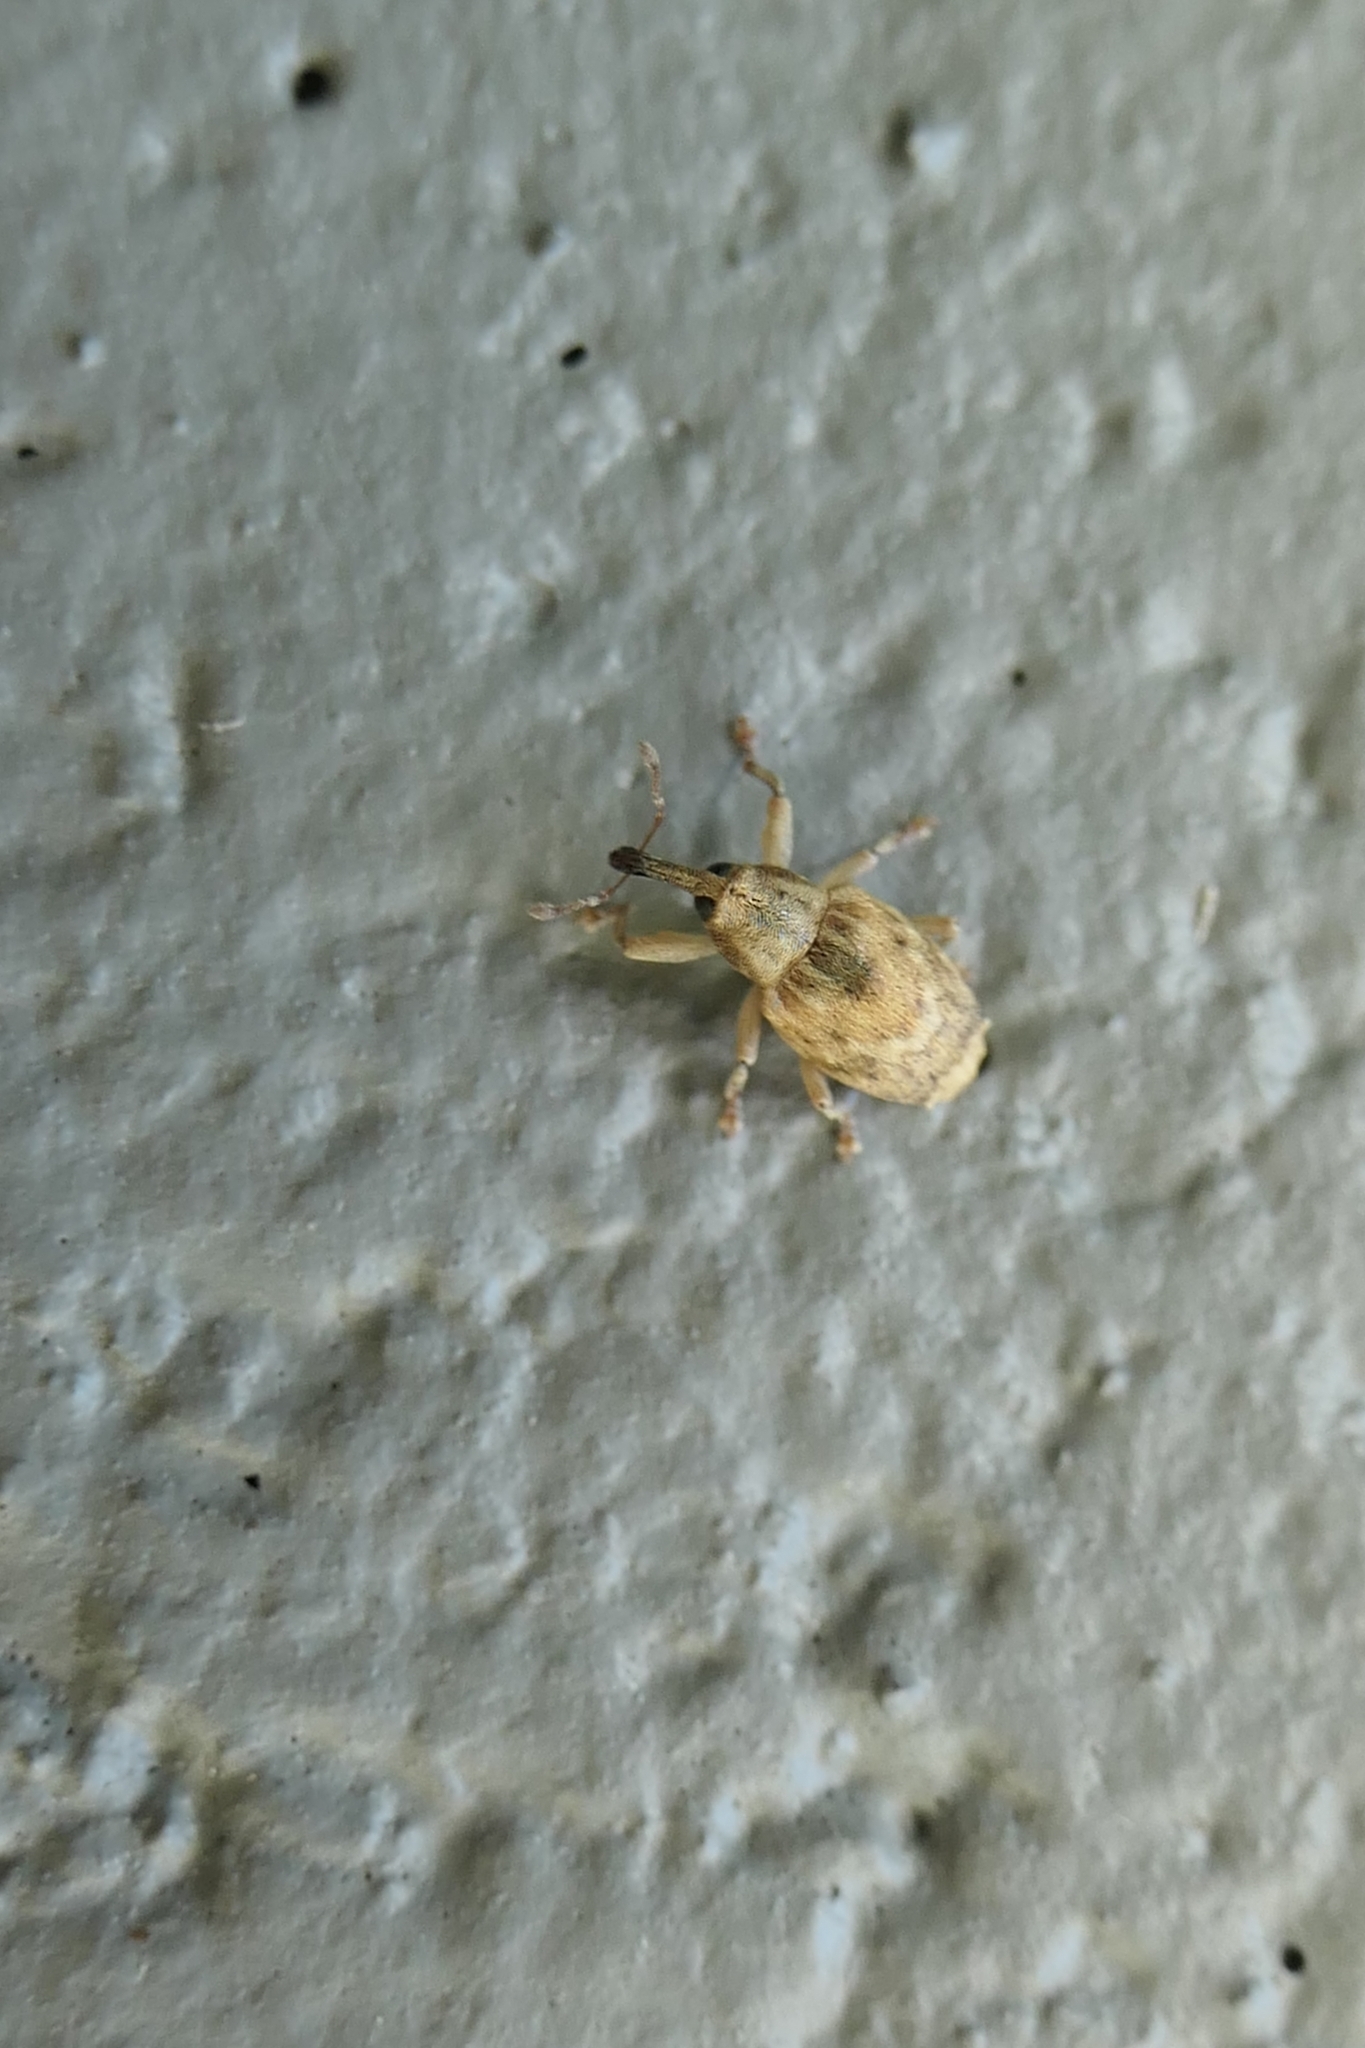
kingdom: Animalia
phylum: Arthropoda
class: Insecta
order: Coleoptera
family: Curculionidae
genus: Aneuma
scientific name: Aneuma compta
